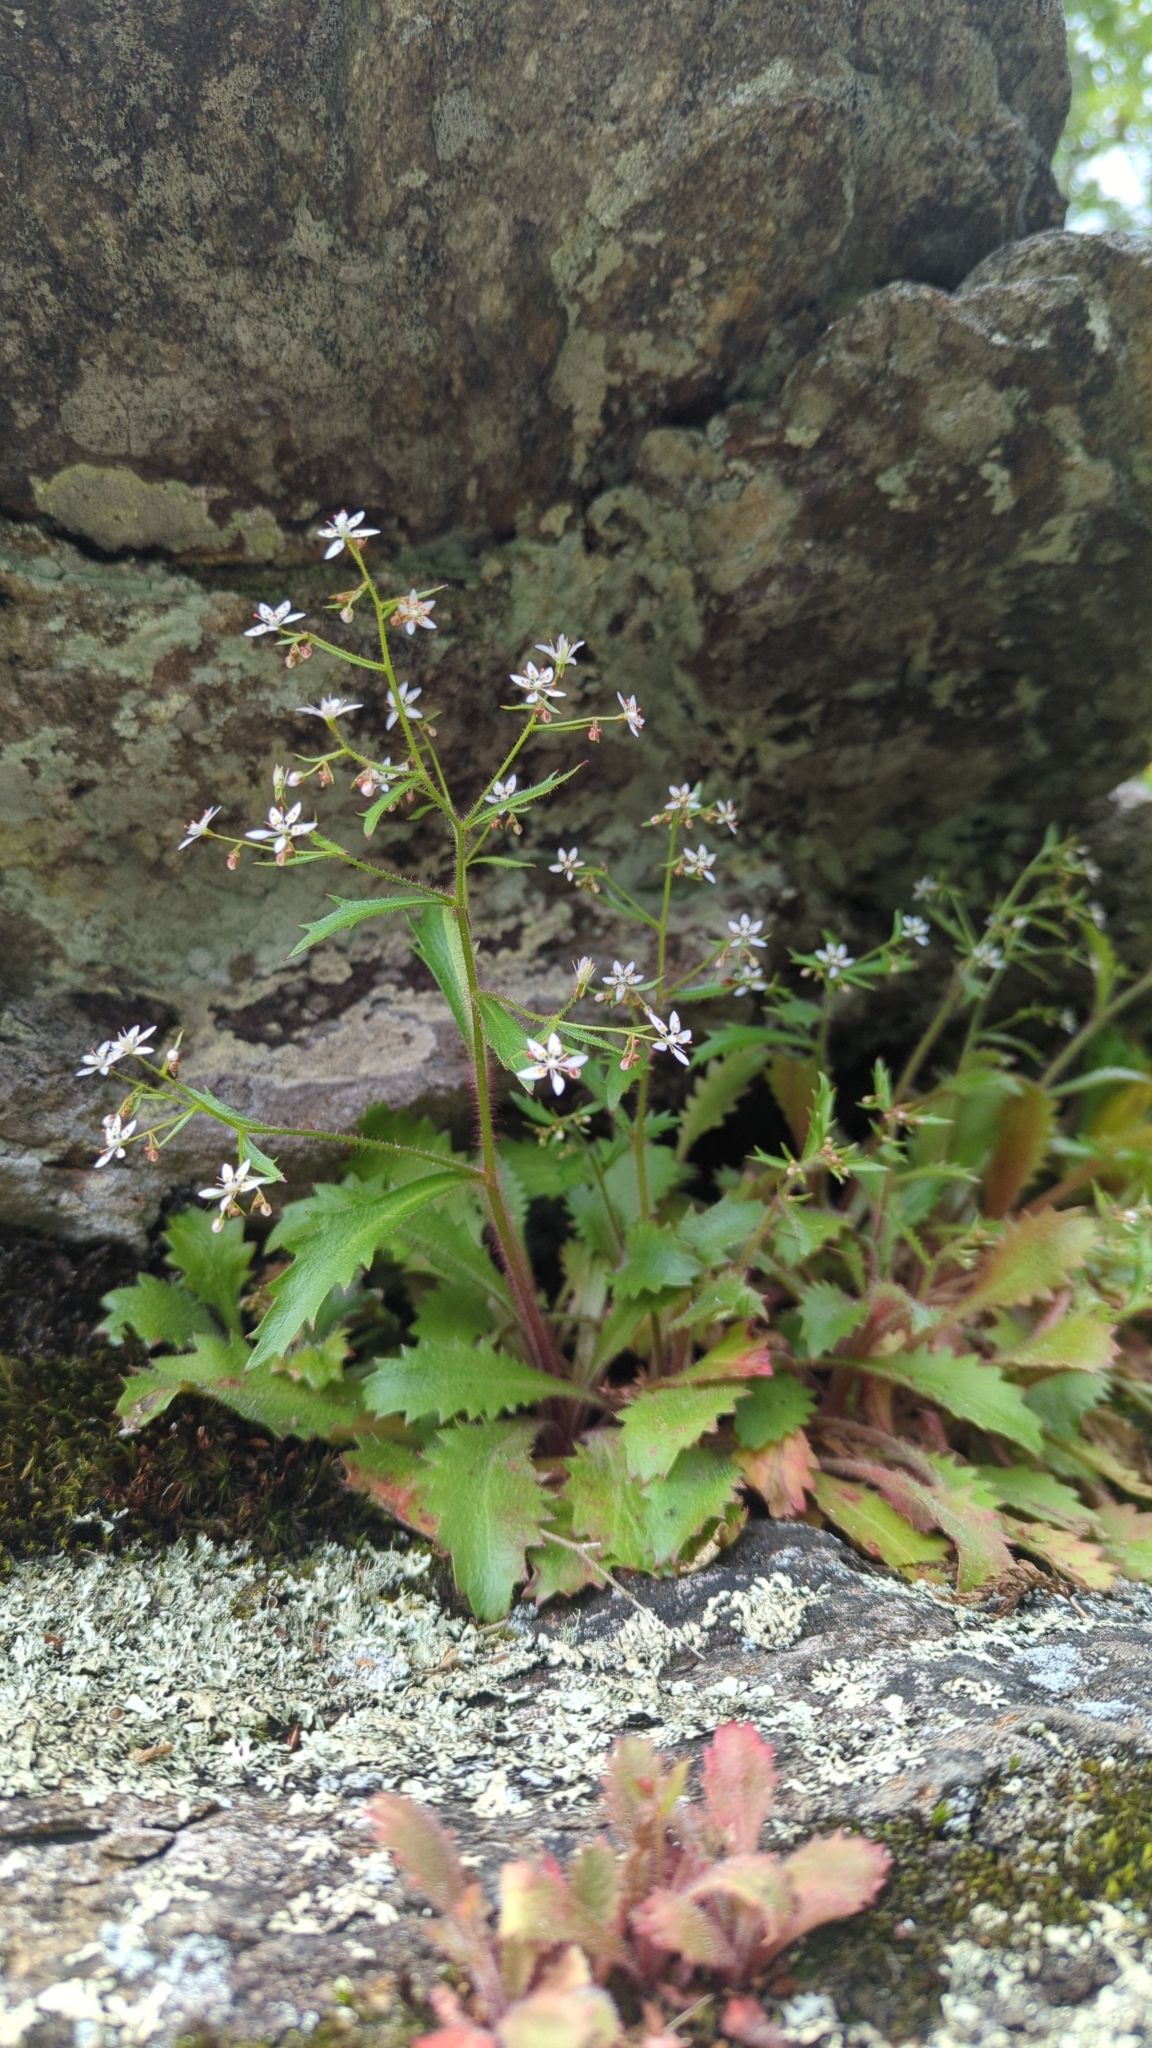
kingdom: Plantae
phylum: Tracheophyta
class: Magnoliopsida
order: Saxifragales
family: Saxifragaceae
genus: Micranthes
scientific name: Micranthes petiolaris
